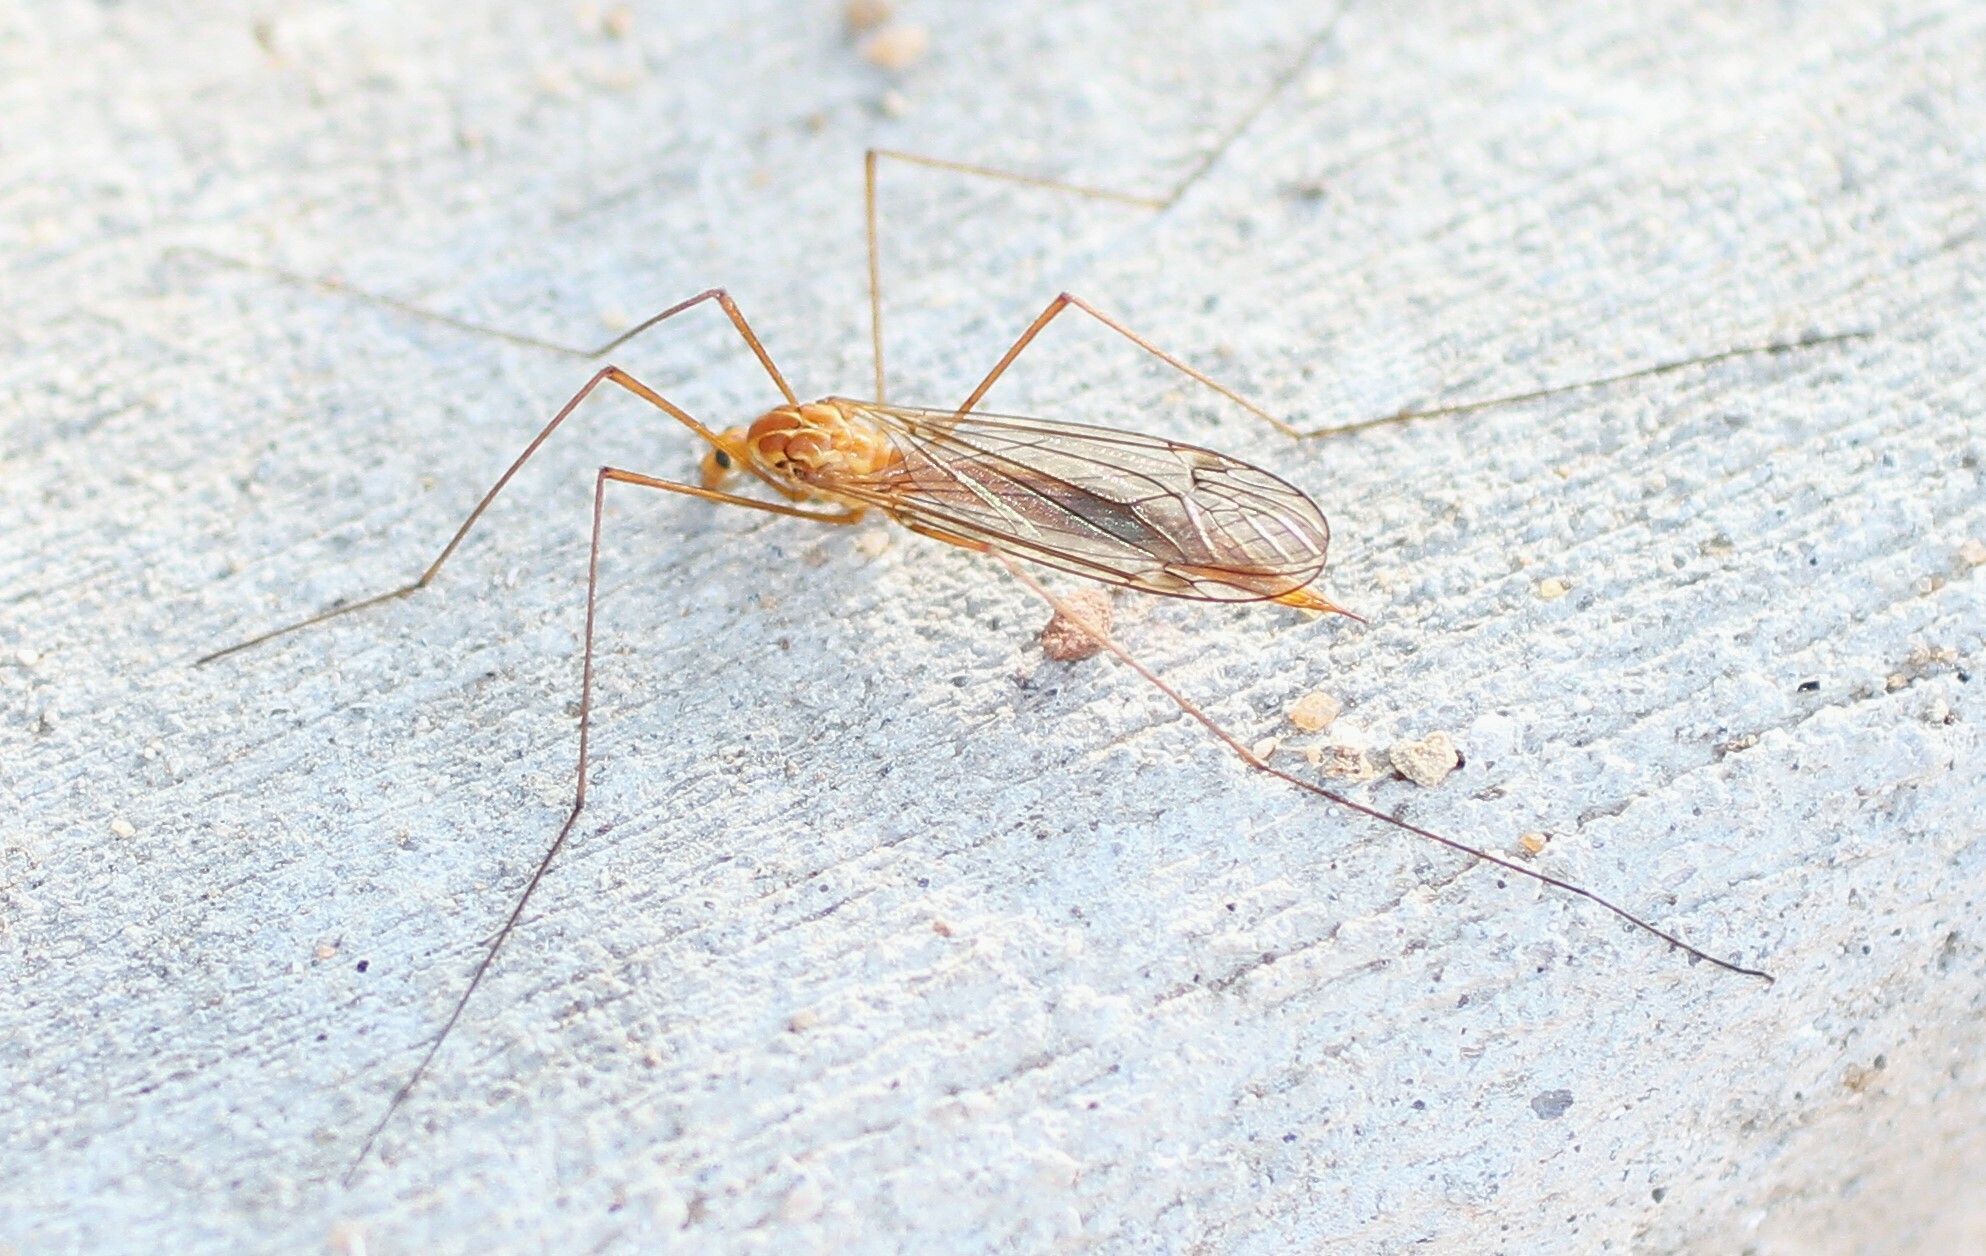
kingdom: Animalia
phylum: Arthropoda
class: Insecta
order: Diptera
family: Tipulidae
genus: Nephrotoma
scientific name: Nephrotoma
